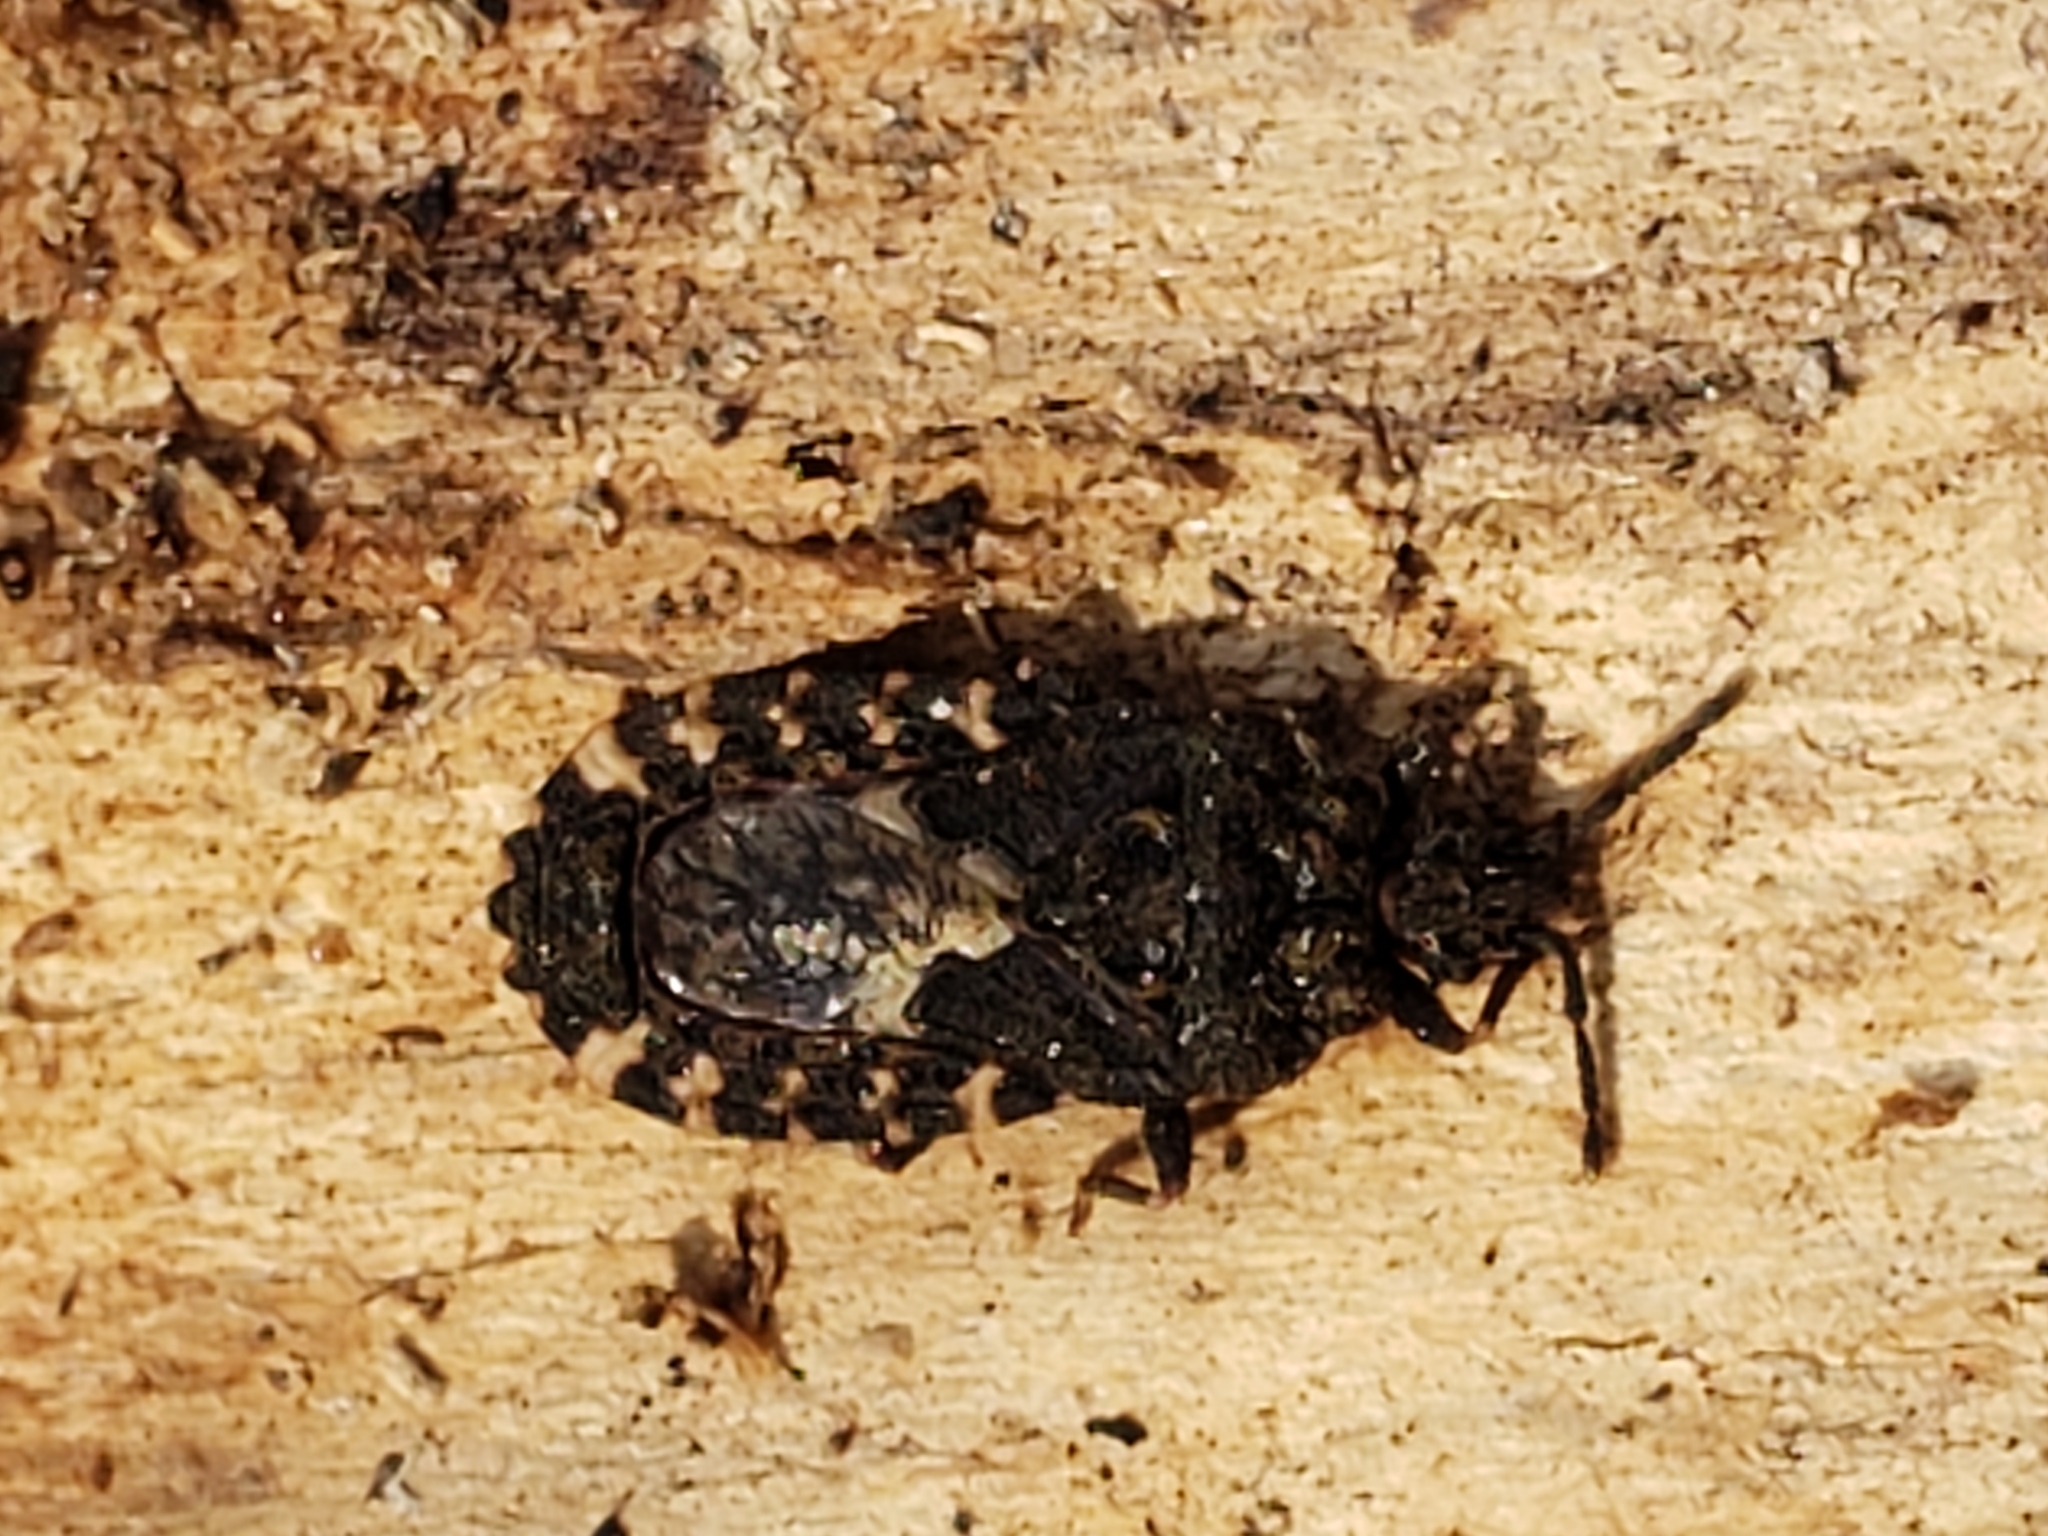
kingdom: Animalia
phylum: Arthropoda
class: Insecta
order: Hemiptera
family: Aradidae
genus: Mezira
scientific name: Mezira
